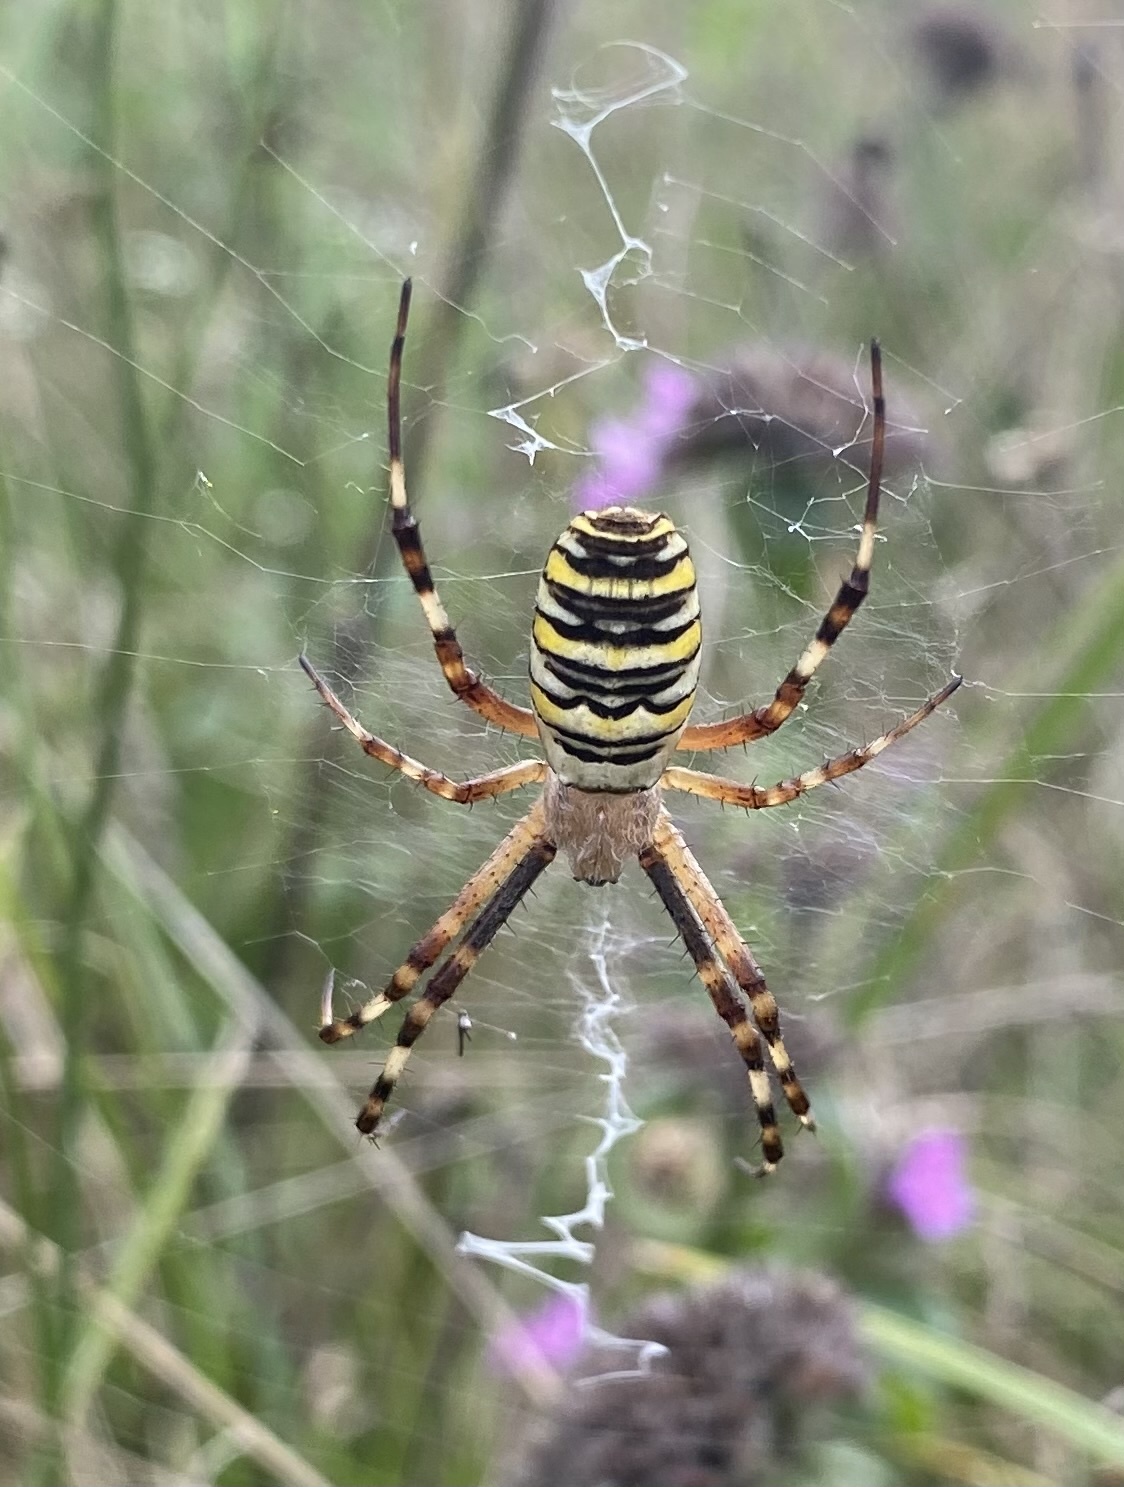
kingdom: Animalia
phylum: Arthropoda
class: Arachnida
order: Araneae
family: Araneidae
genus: Argiope
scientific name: Argiope bruennichi
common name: Wasp spider
